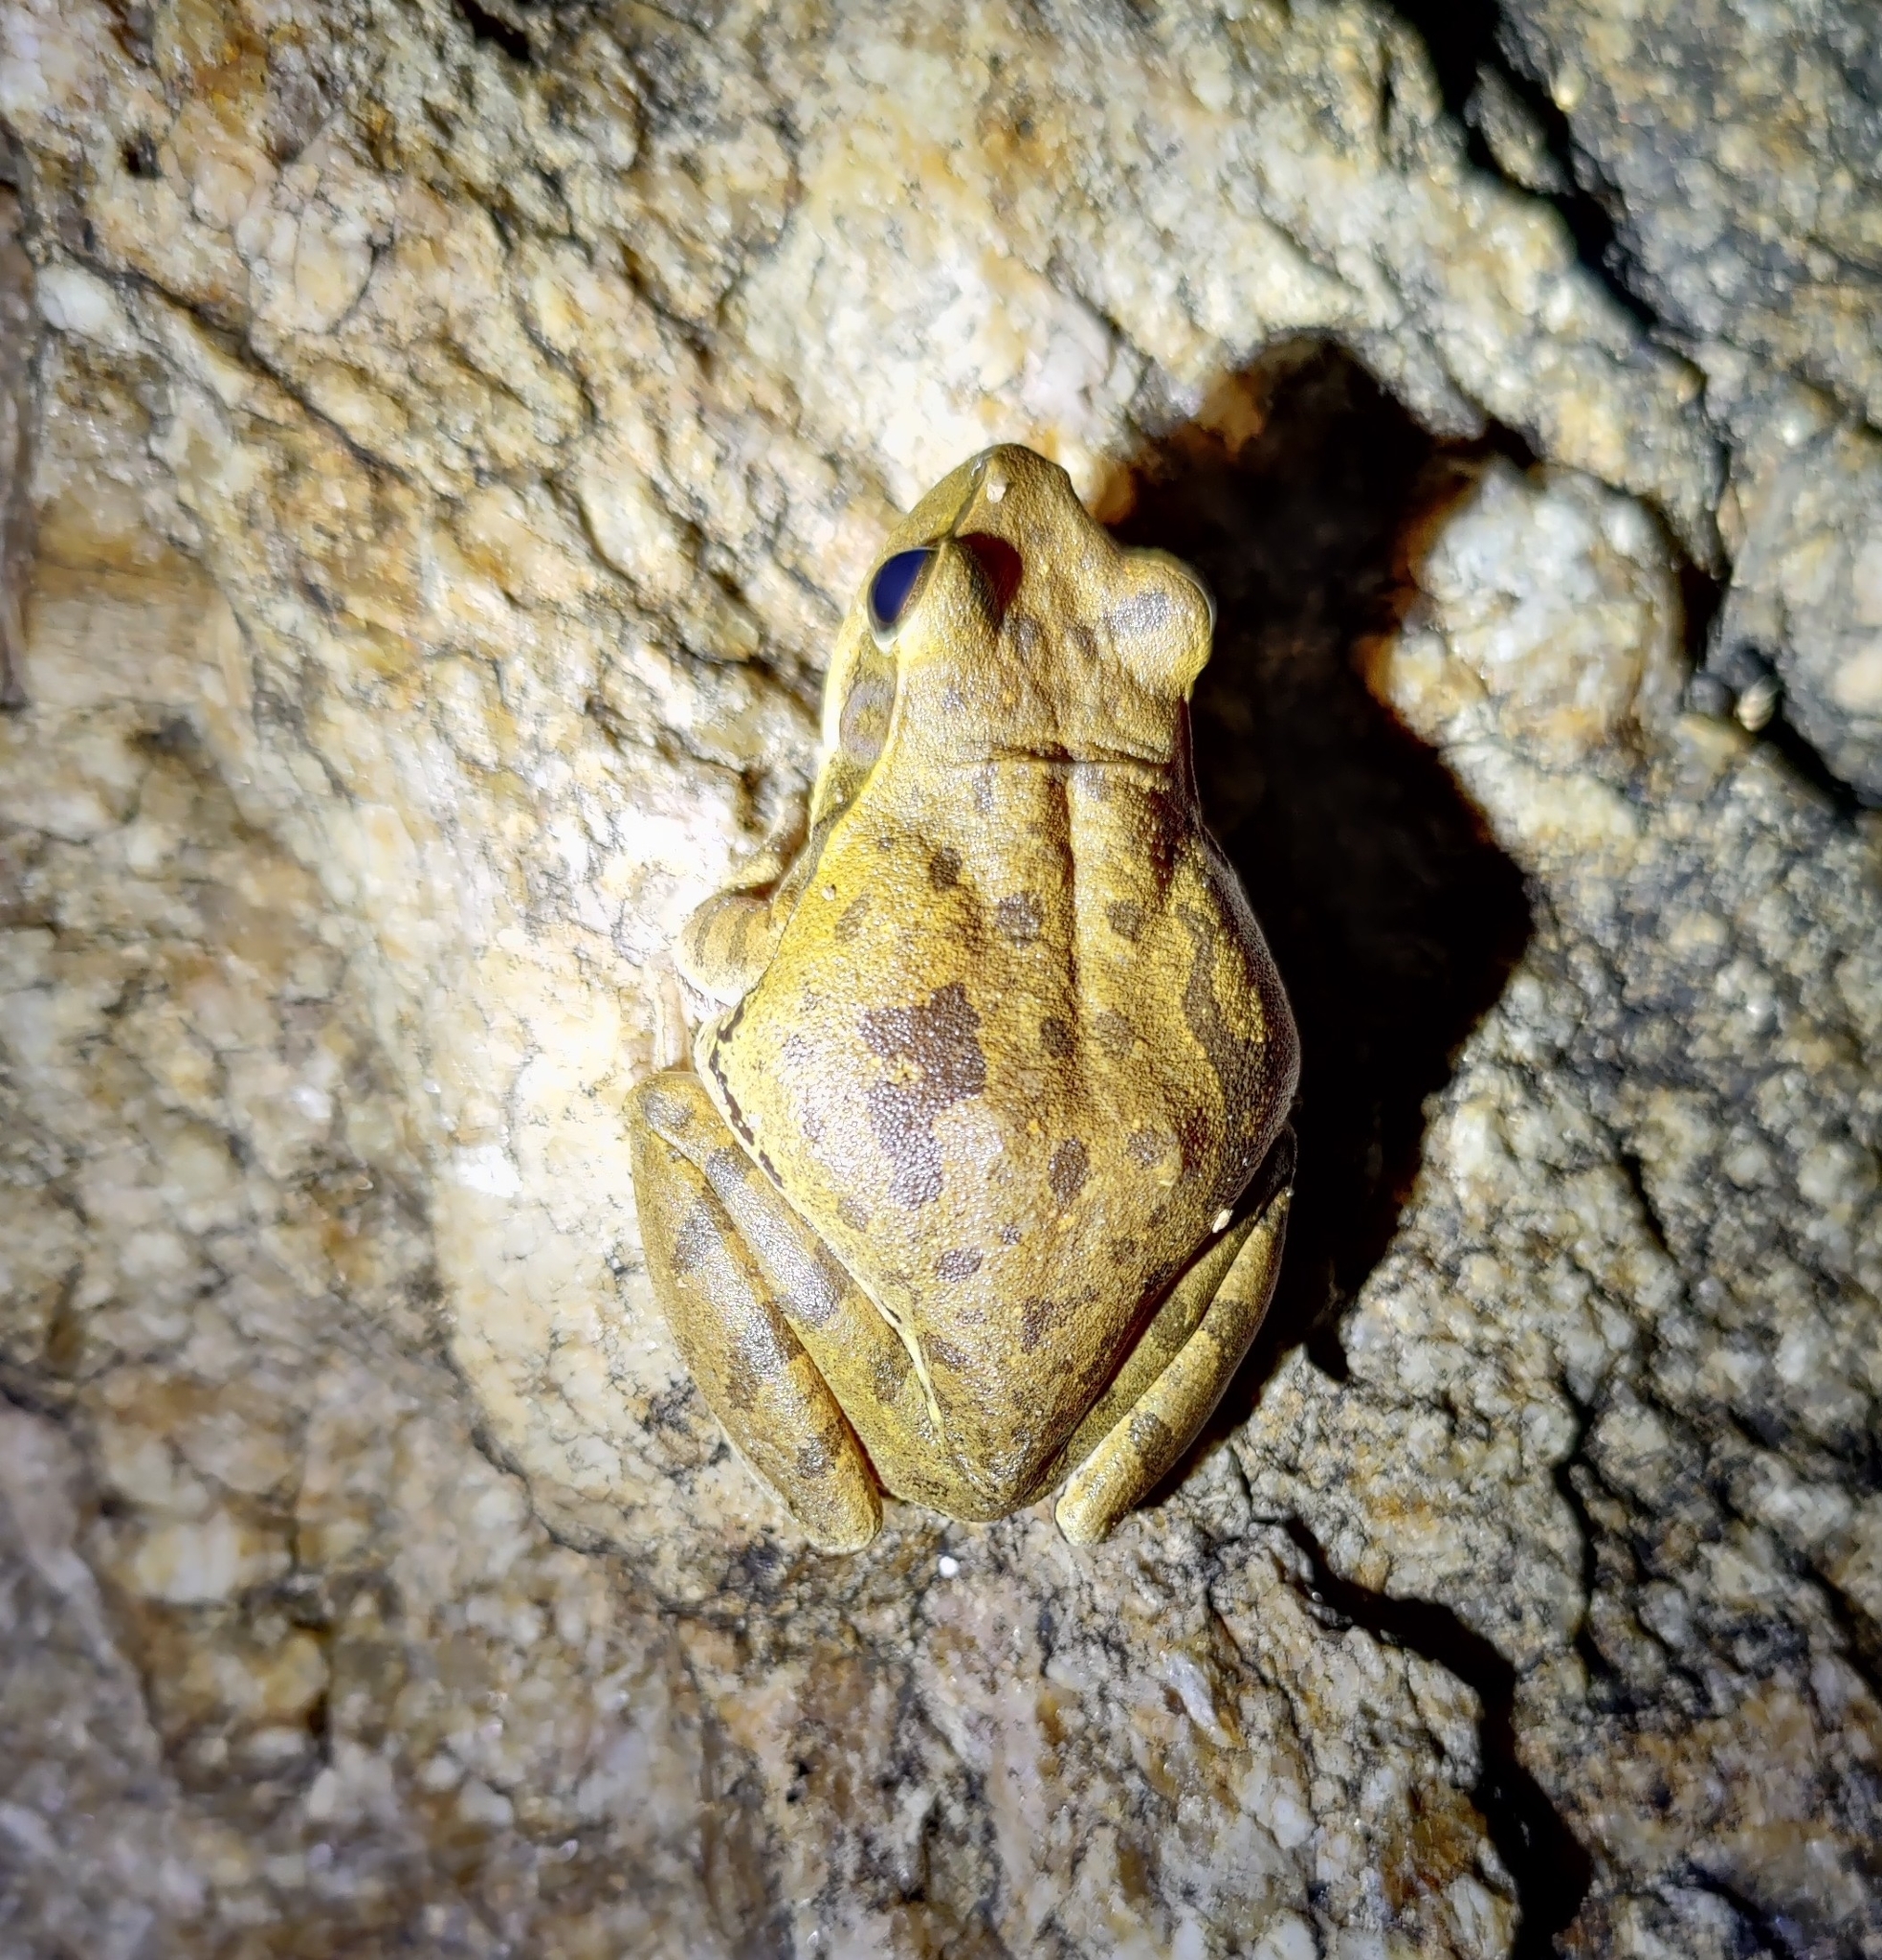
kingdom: Animalia
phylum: Chordata
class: Amphibia
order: Anura
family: Rhacophoridae
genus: Polypedates
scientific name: Polypedates maculatus
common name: Himalayan tree frog
